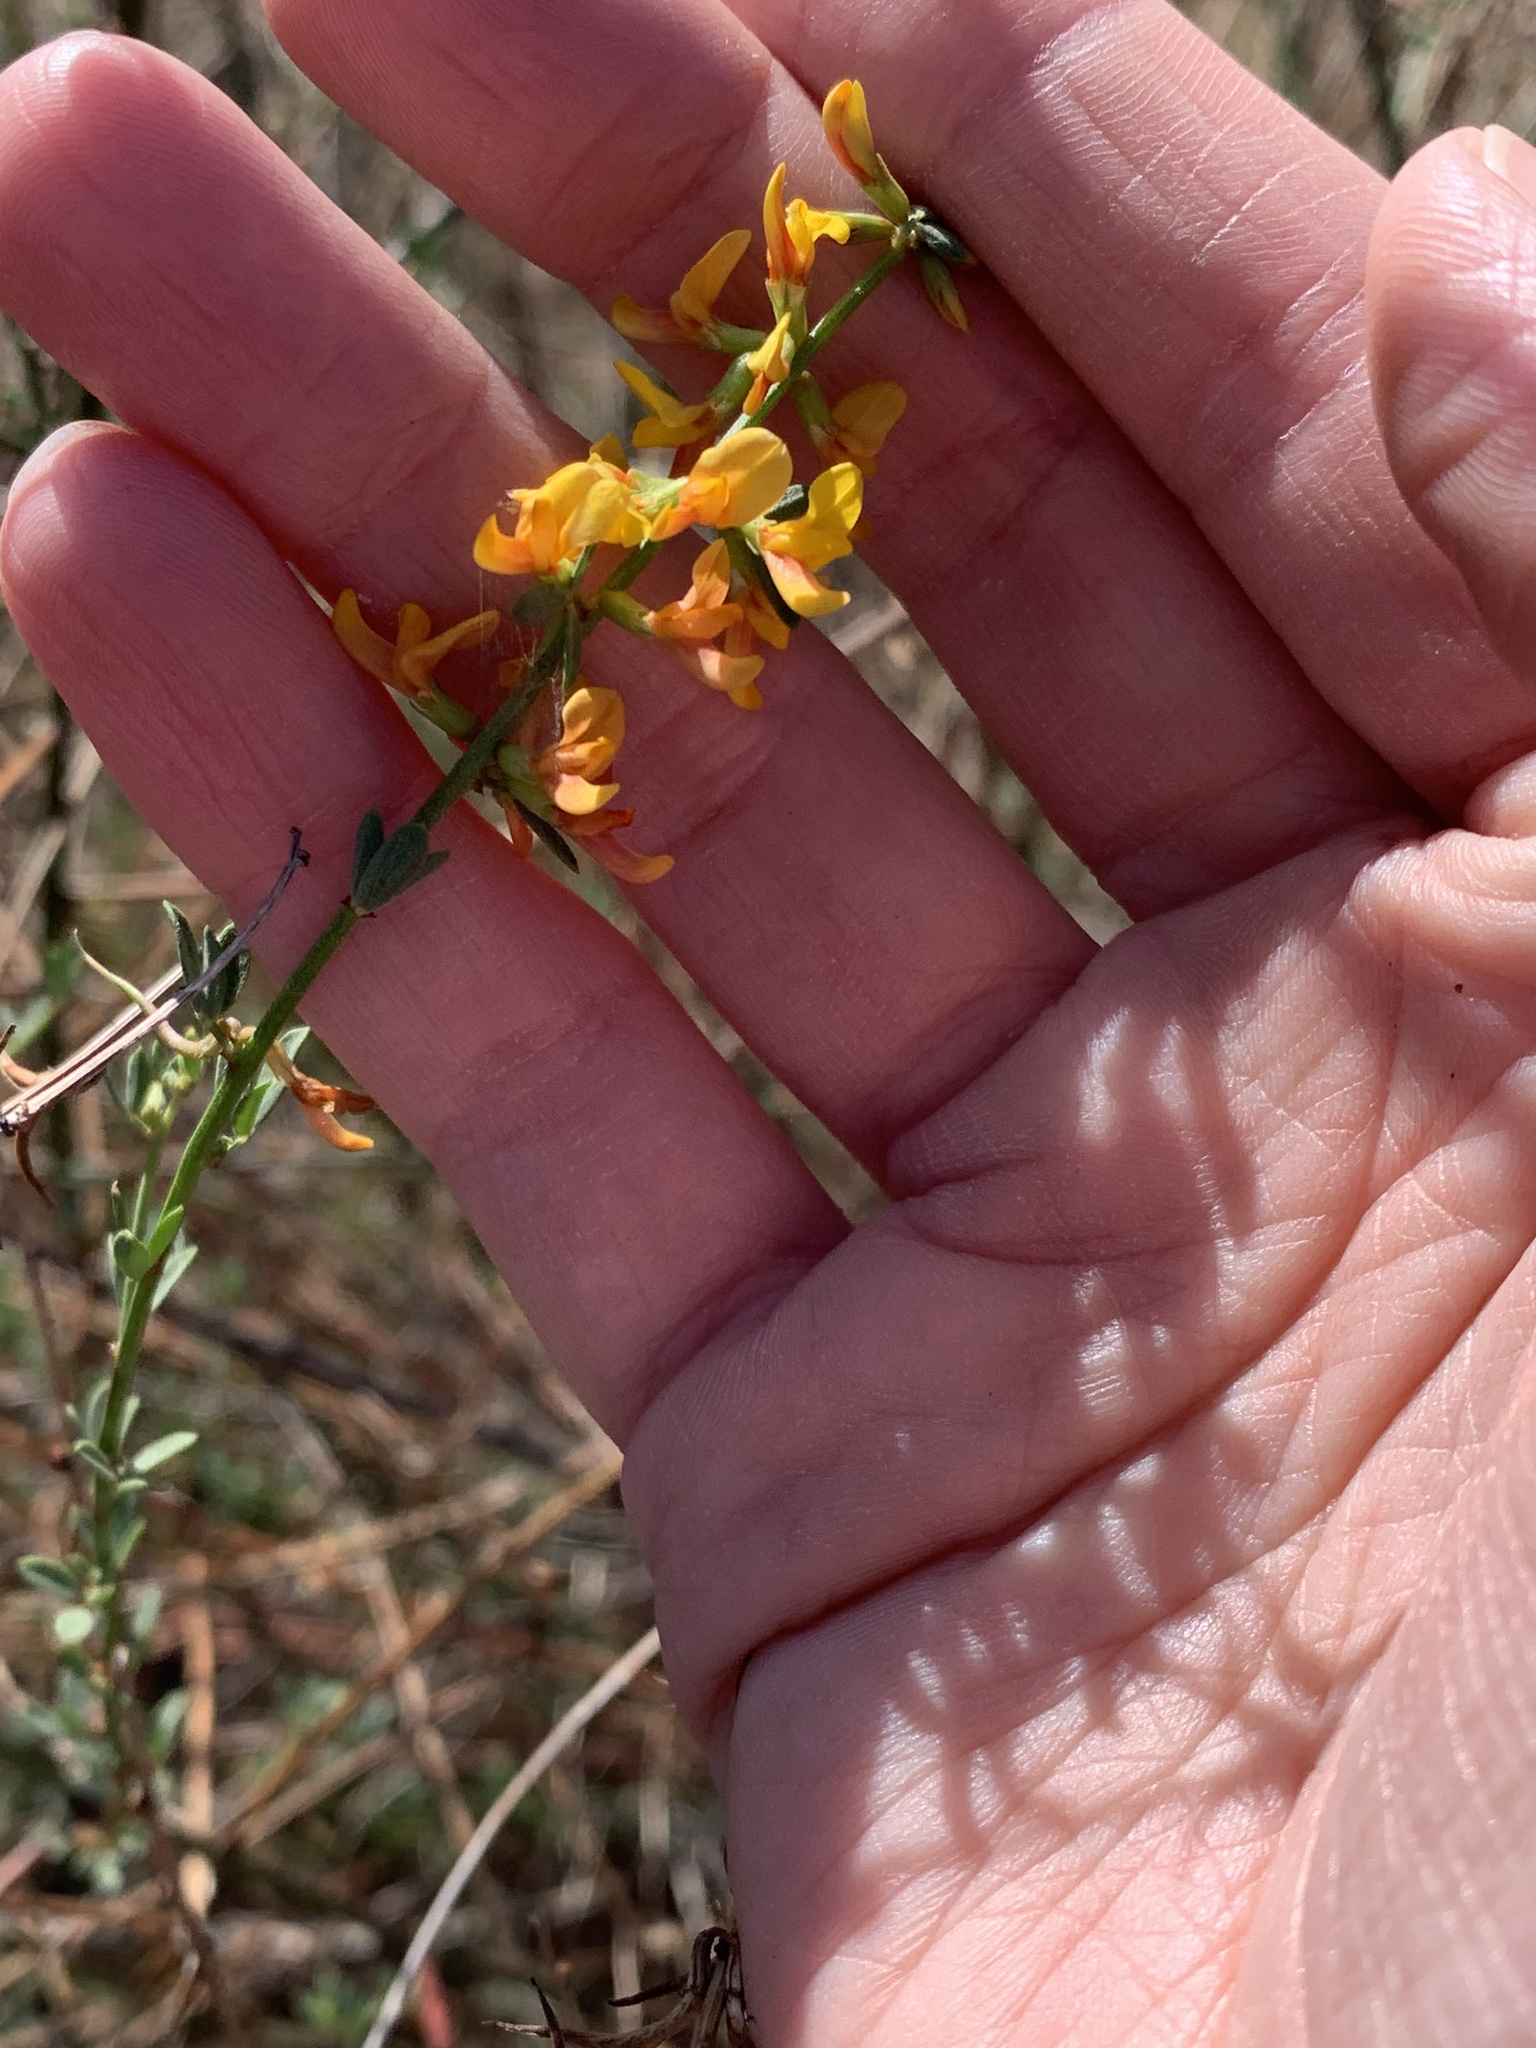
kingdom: Plantae
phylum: Tracheophyta
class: Magnoliopsida
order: Fabales
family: Fabaceae
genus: Acmispon
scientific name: Acmispon glaber
